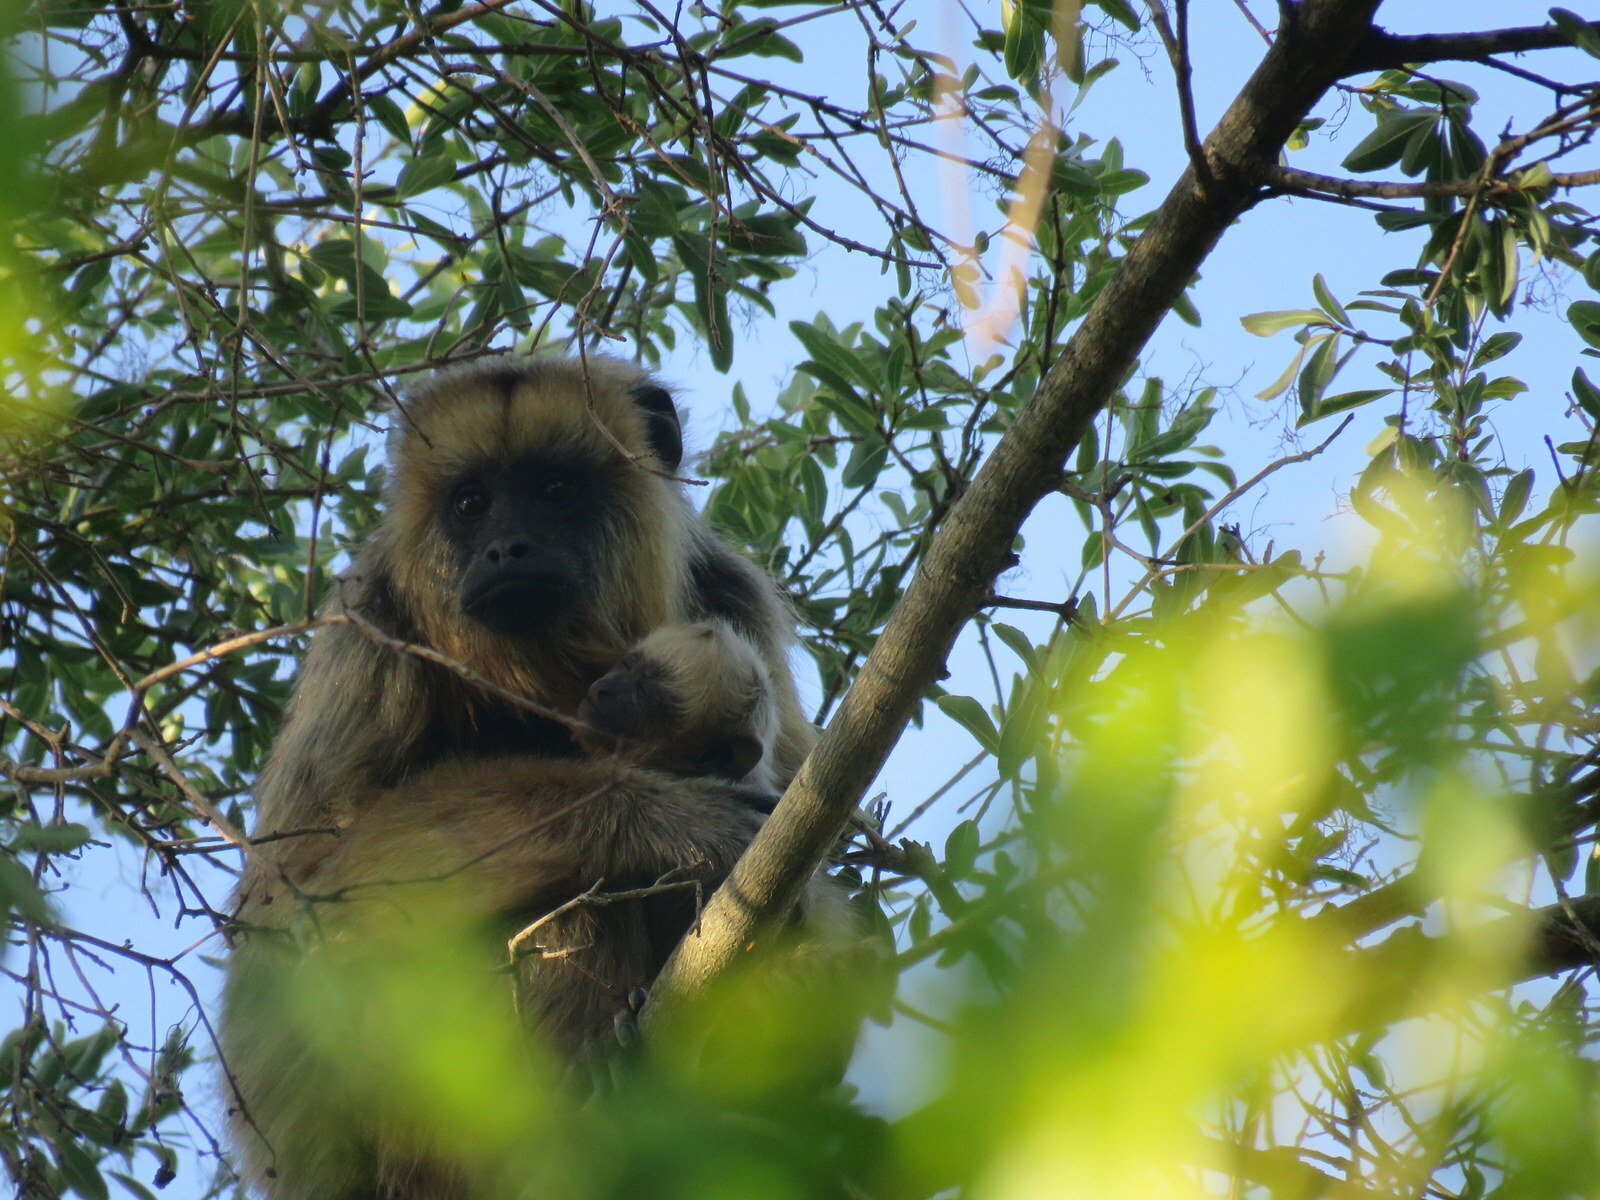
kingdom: Animalia
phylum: Chordata
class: Mammalia
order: Primates
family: Atelidae
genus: Alouatta
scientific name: Alouatta caraya
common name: Black howler
